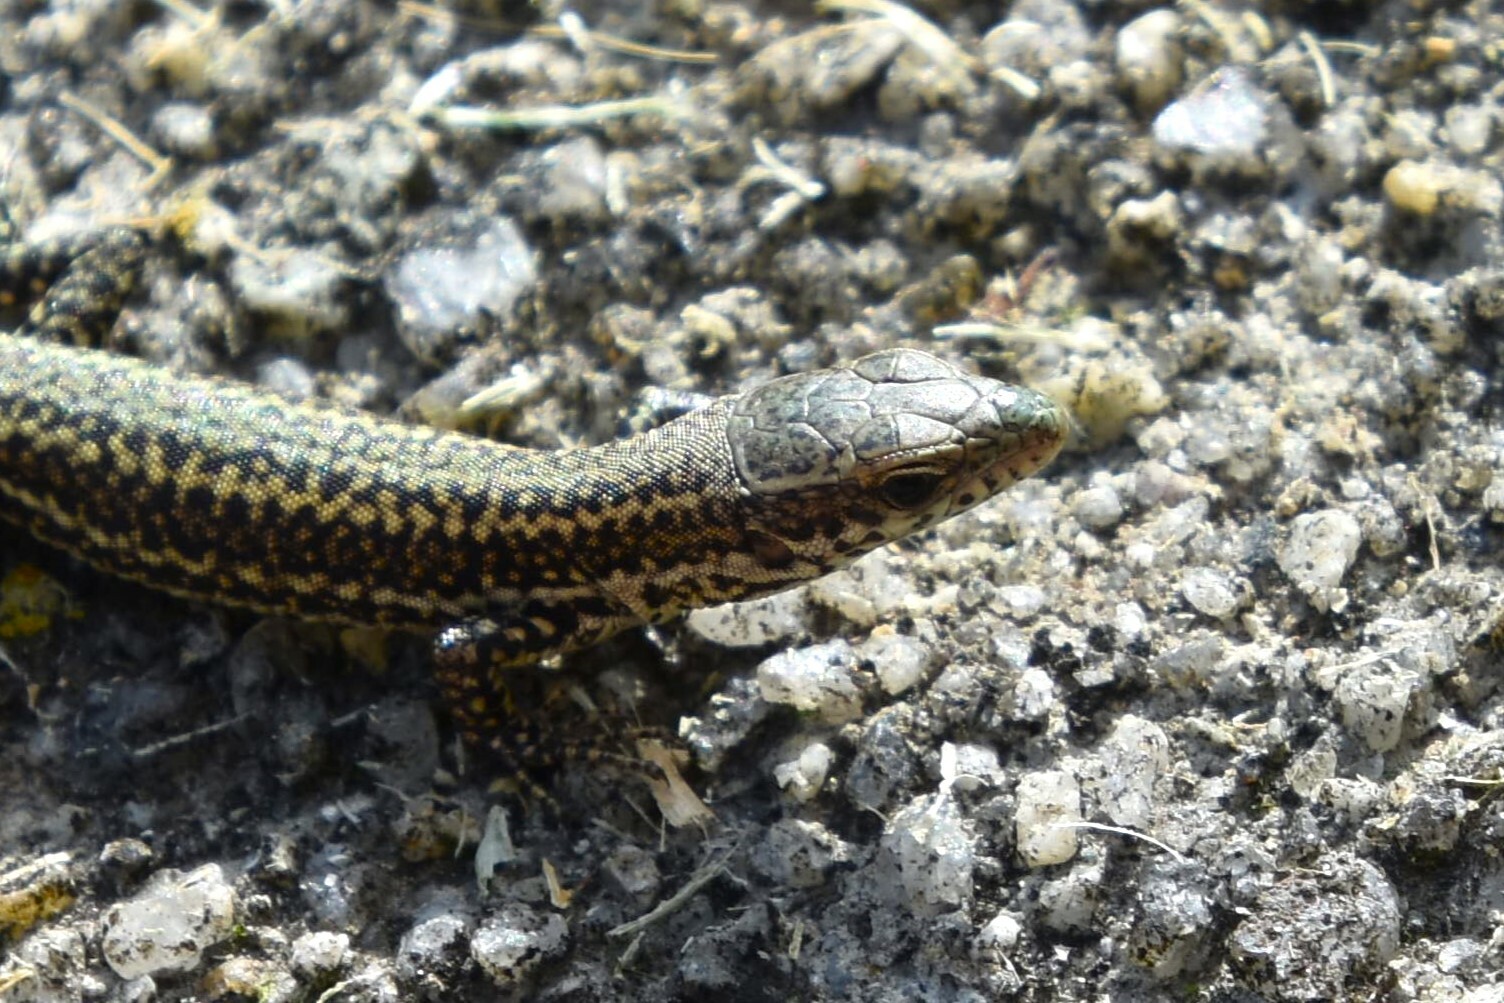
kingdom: Animalia
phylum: Chordata
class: Squamata
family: Lacertidae
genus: Podarcis
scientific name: Podarcis bocagei
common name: Bocage's wall lizard
